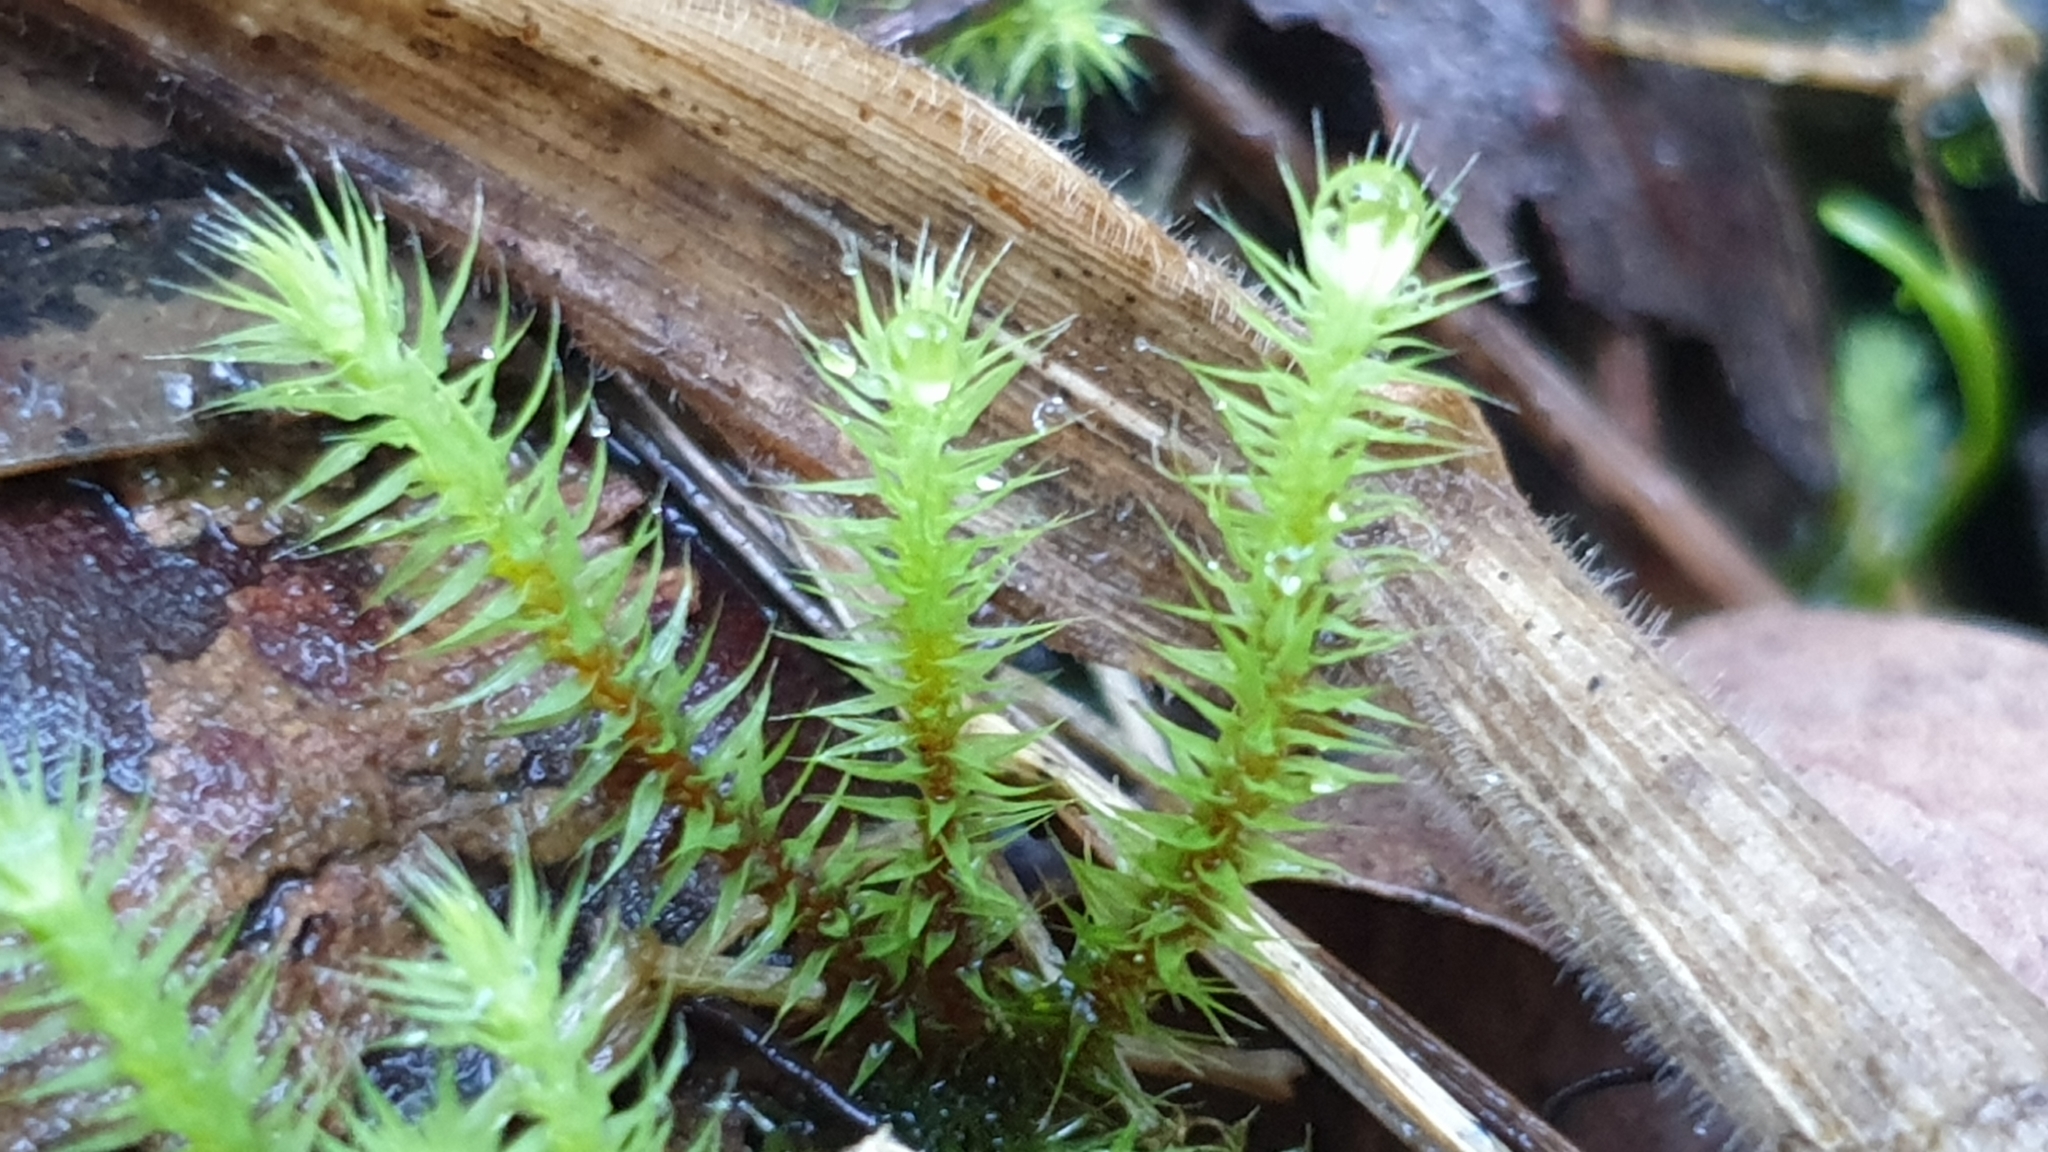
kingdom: Plantae
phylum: Bryophyta
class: Bryopsida
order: Bartramiales
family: Bartramiaceae
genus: Breutelia
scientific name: Breutelia affinis
